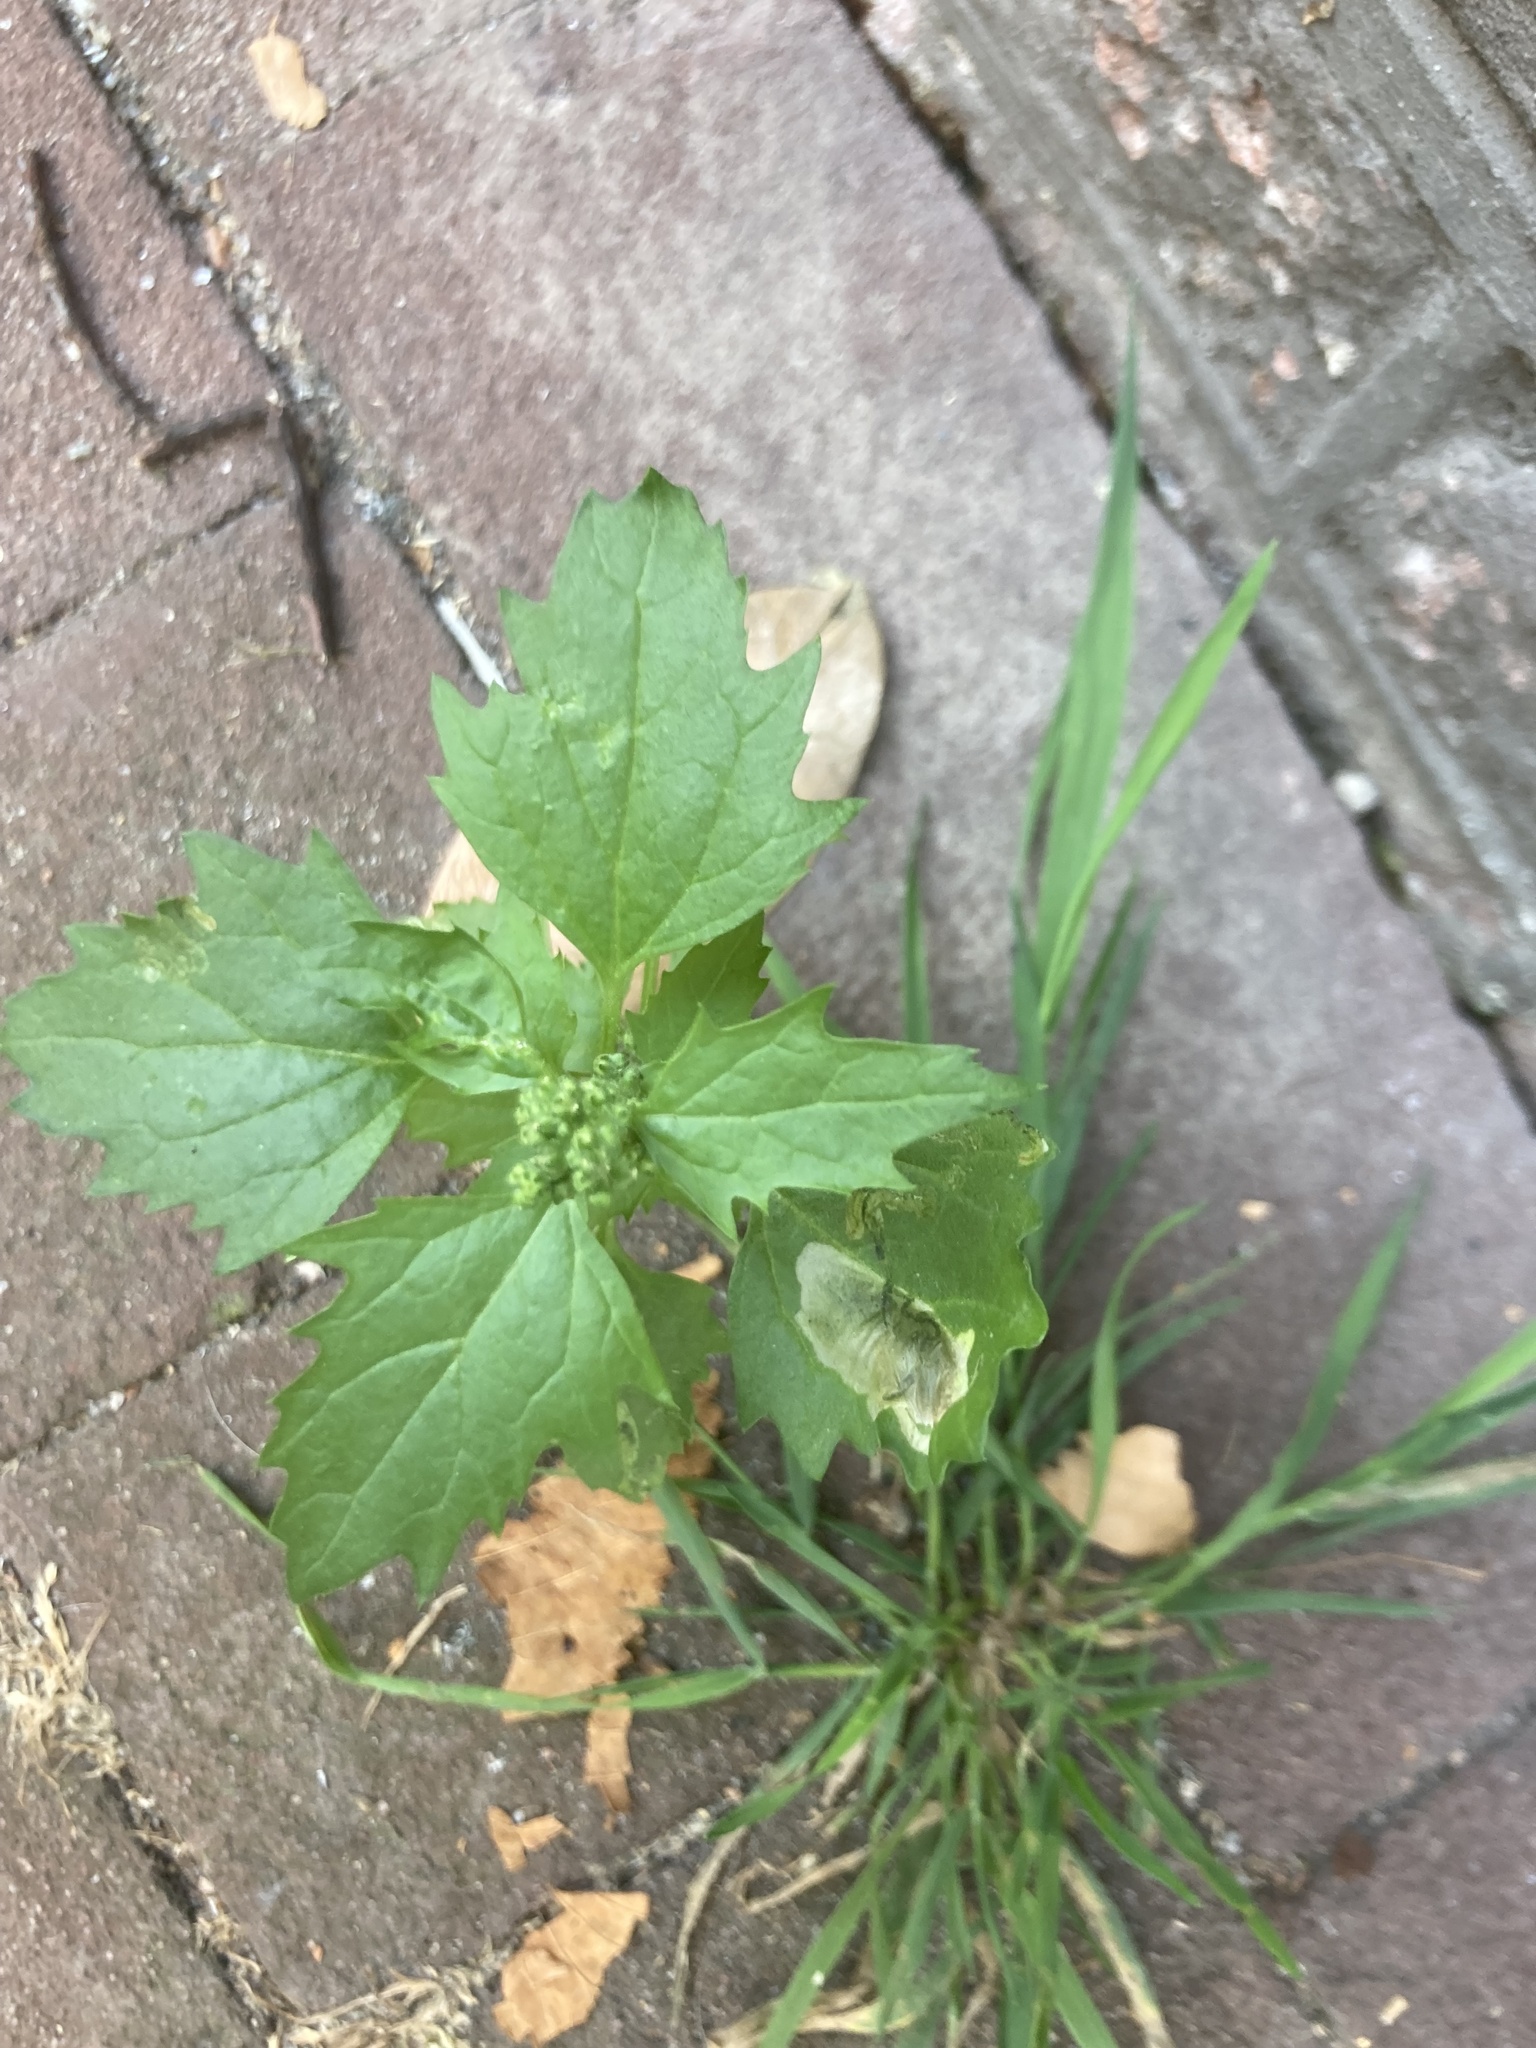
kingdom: Plantae
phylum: Tracheophyta
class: Magnoliopsida
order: Caryophyllales
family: Amaranthaceae
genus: Chenopodiastrum
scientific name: Chenopodiastrum murale
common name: Sowbane
